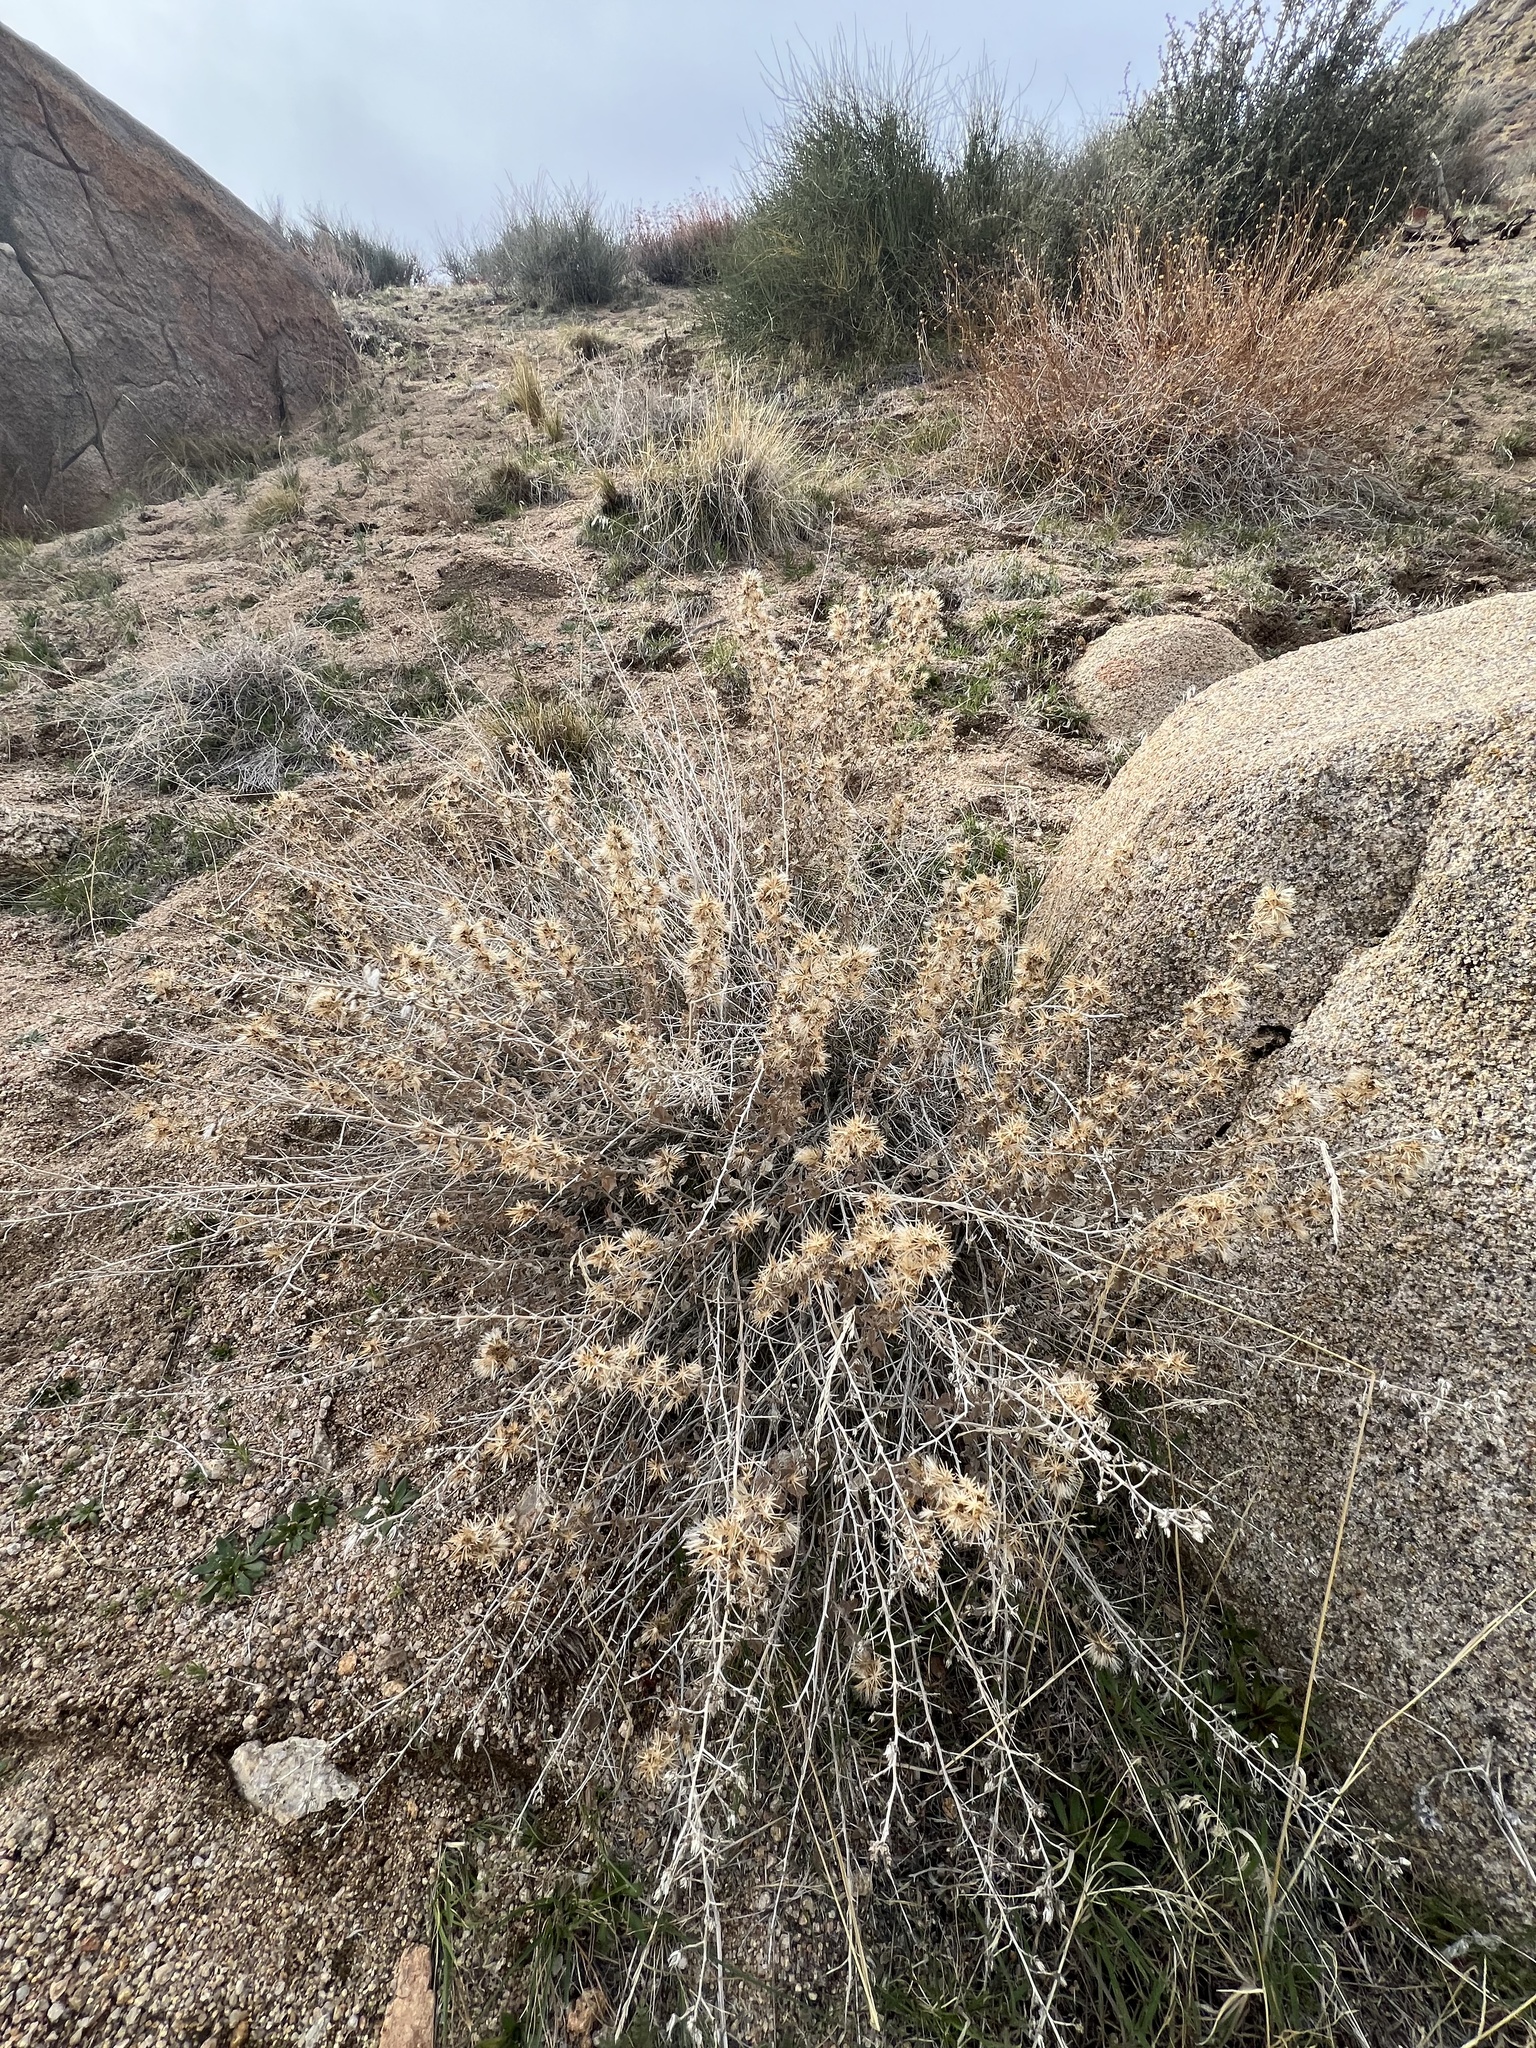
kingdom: Plantae
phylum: Tracheophyta
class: Magnoliopsida
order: Asterales
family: Asteraceae
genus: Brickellia
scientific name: Brickellia microphylla
